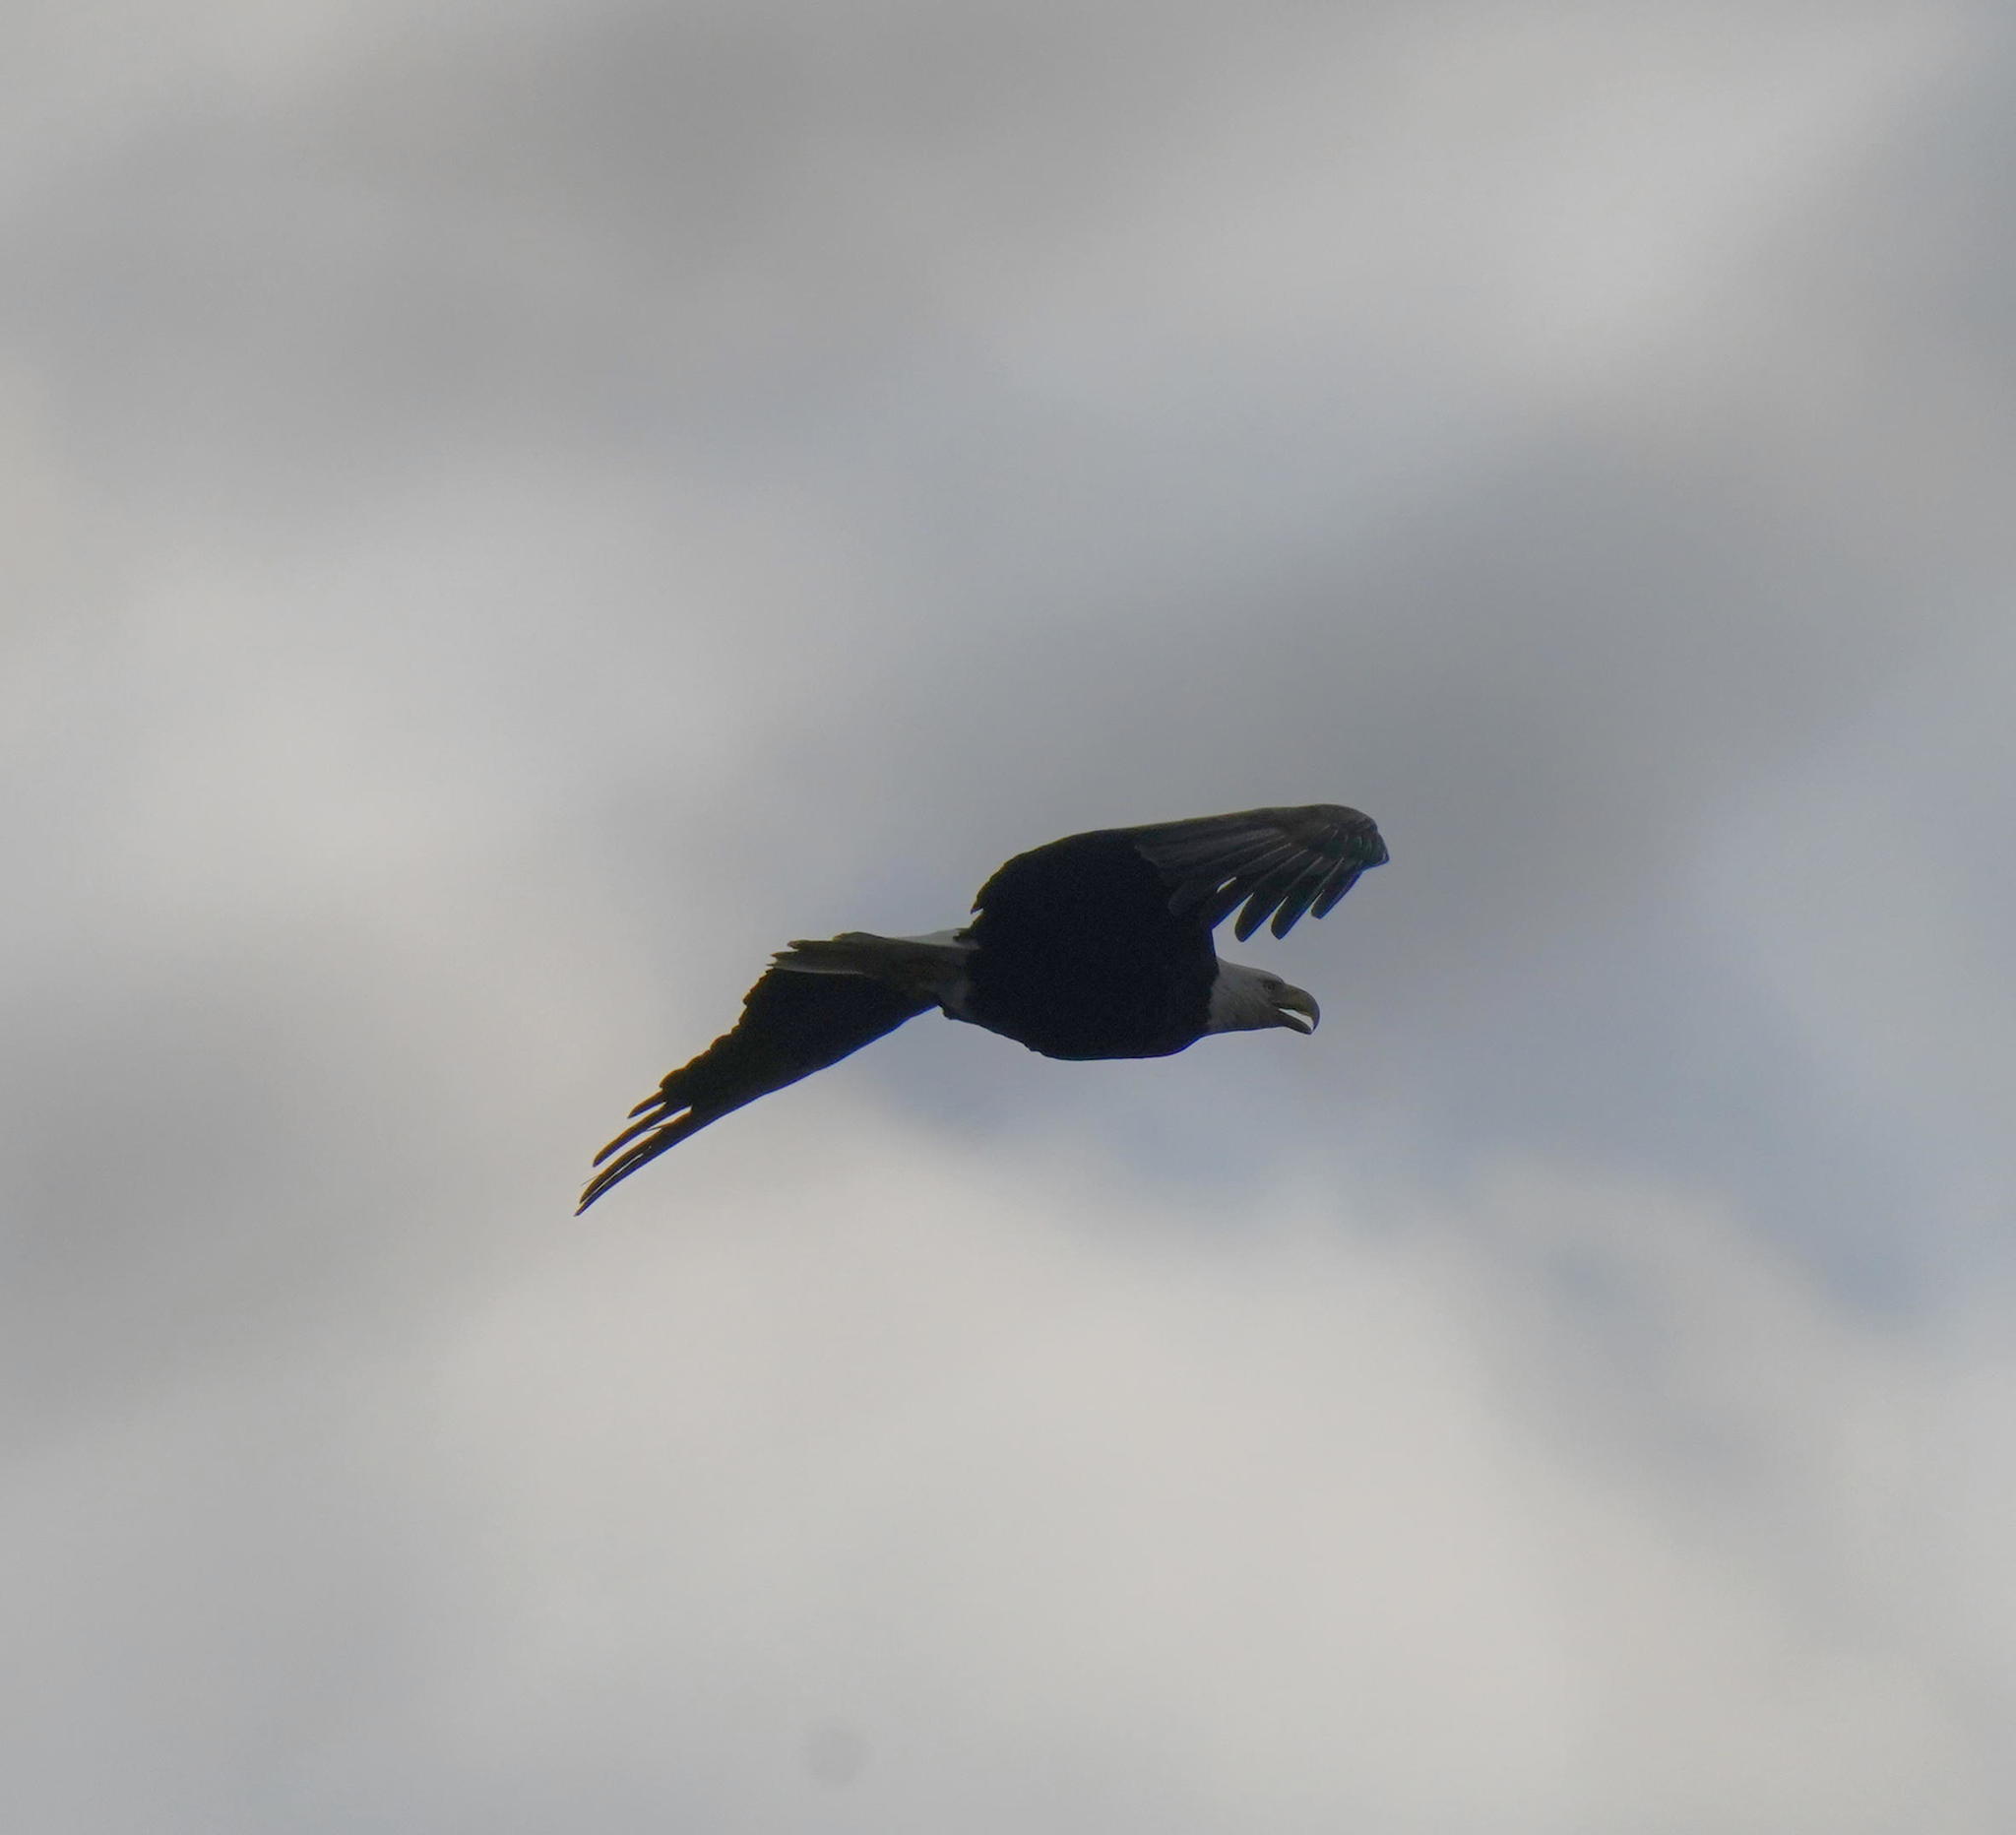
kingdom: Animalia
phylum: Chordata
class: Aves
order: Accipitriformes
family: Accipitridae
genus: Haliaeetus
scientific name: Haliaeetus leucocephalus
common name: Bald eagle
